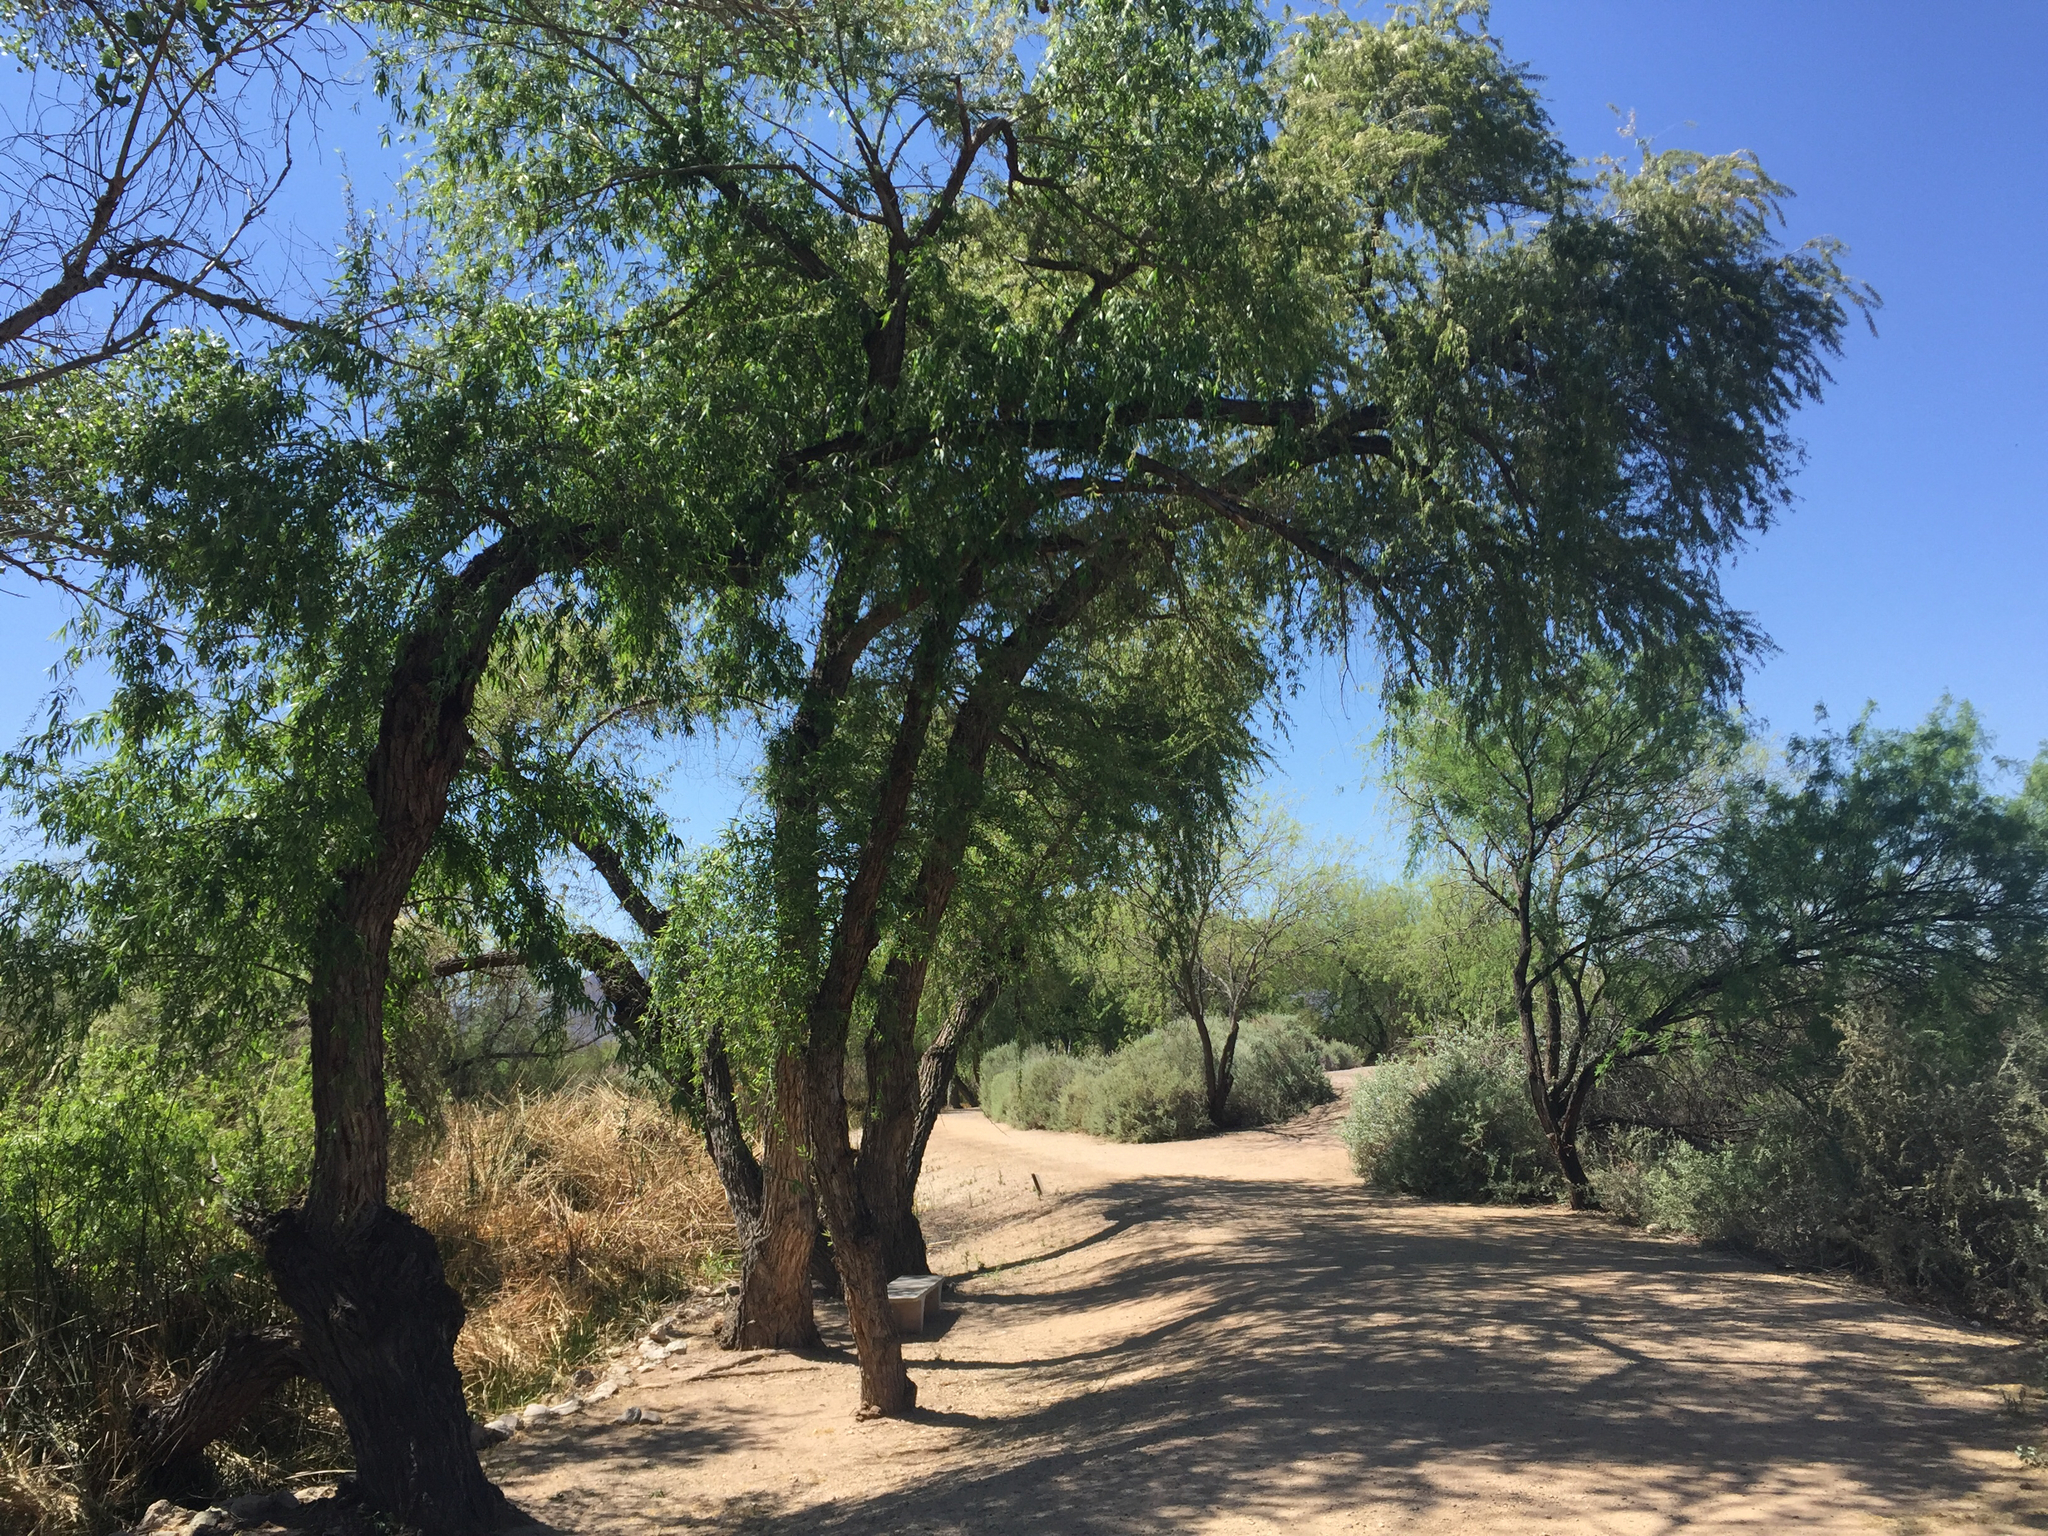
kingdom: Plantae
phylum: Tracheophyta
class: Magnoliopsida
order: Malpighiales
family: Salicaceae
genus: Salix
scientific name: Salix gooddingii
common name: Goodding's willow
